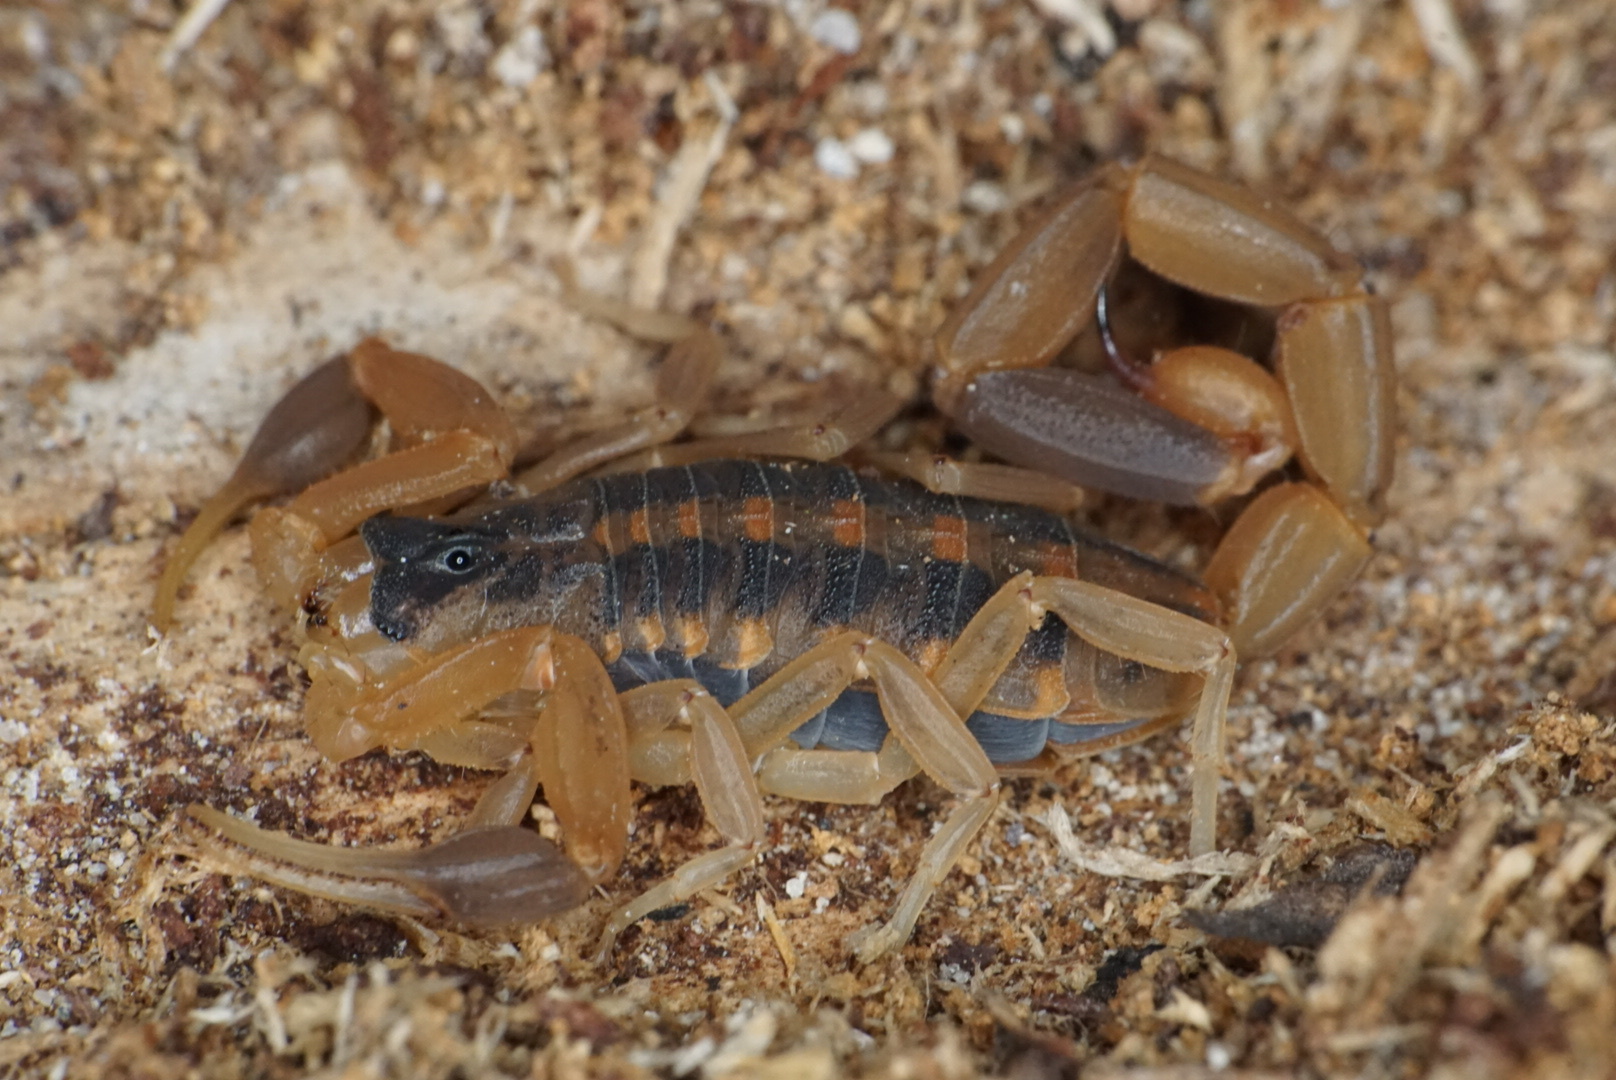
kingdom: Animalia
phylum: Arthropoda
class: Arachnida
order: Scorpiones
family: Buthidae
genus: Centruroides
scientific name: Centruroides vittatus
